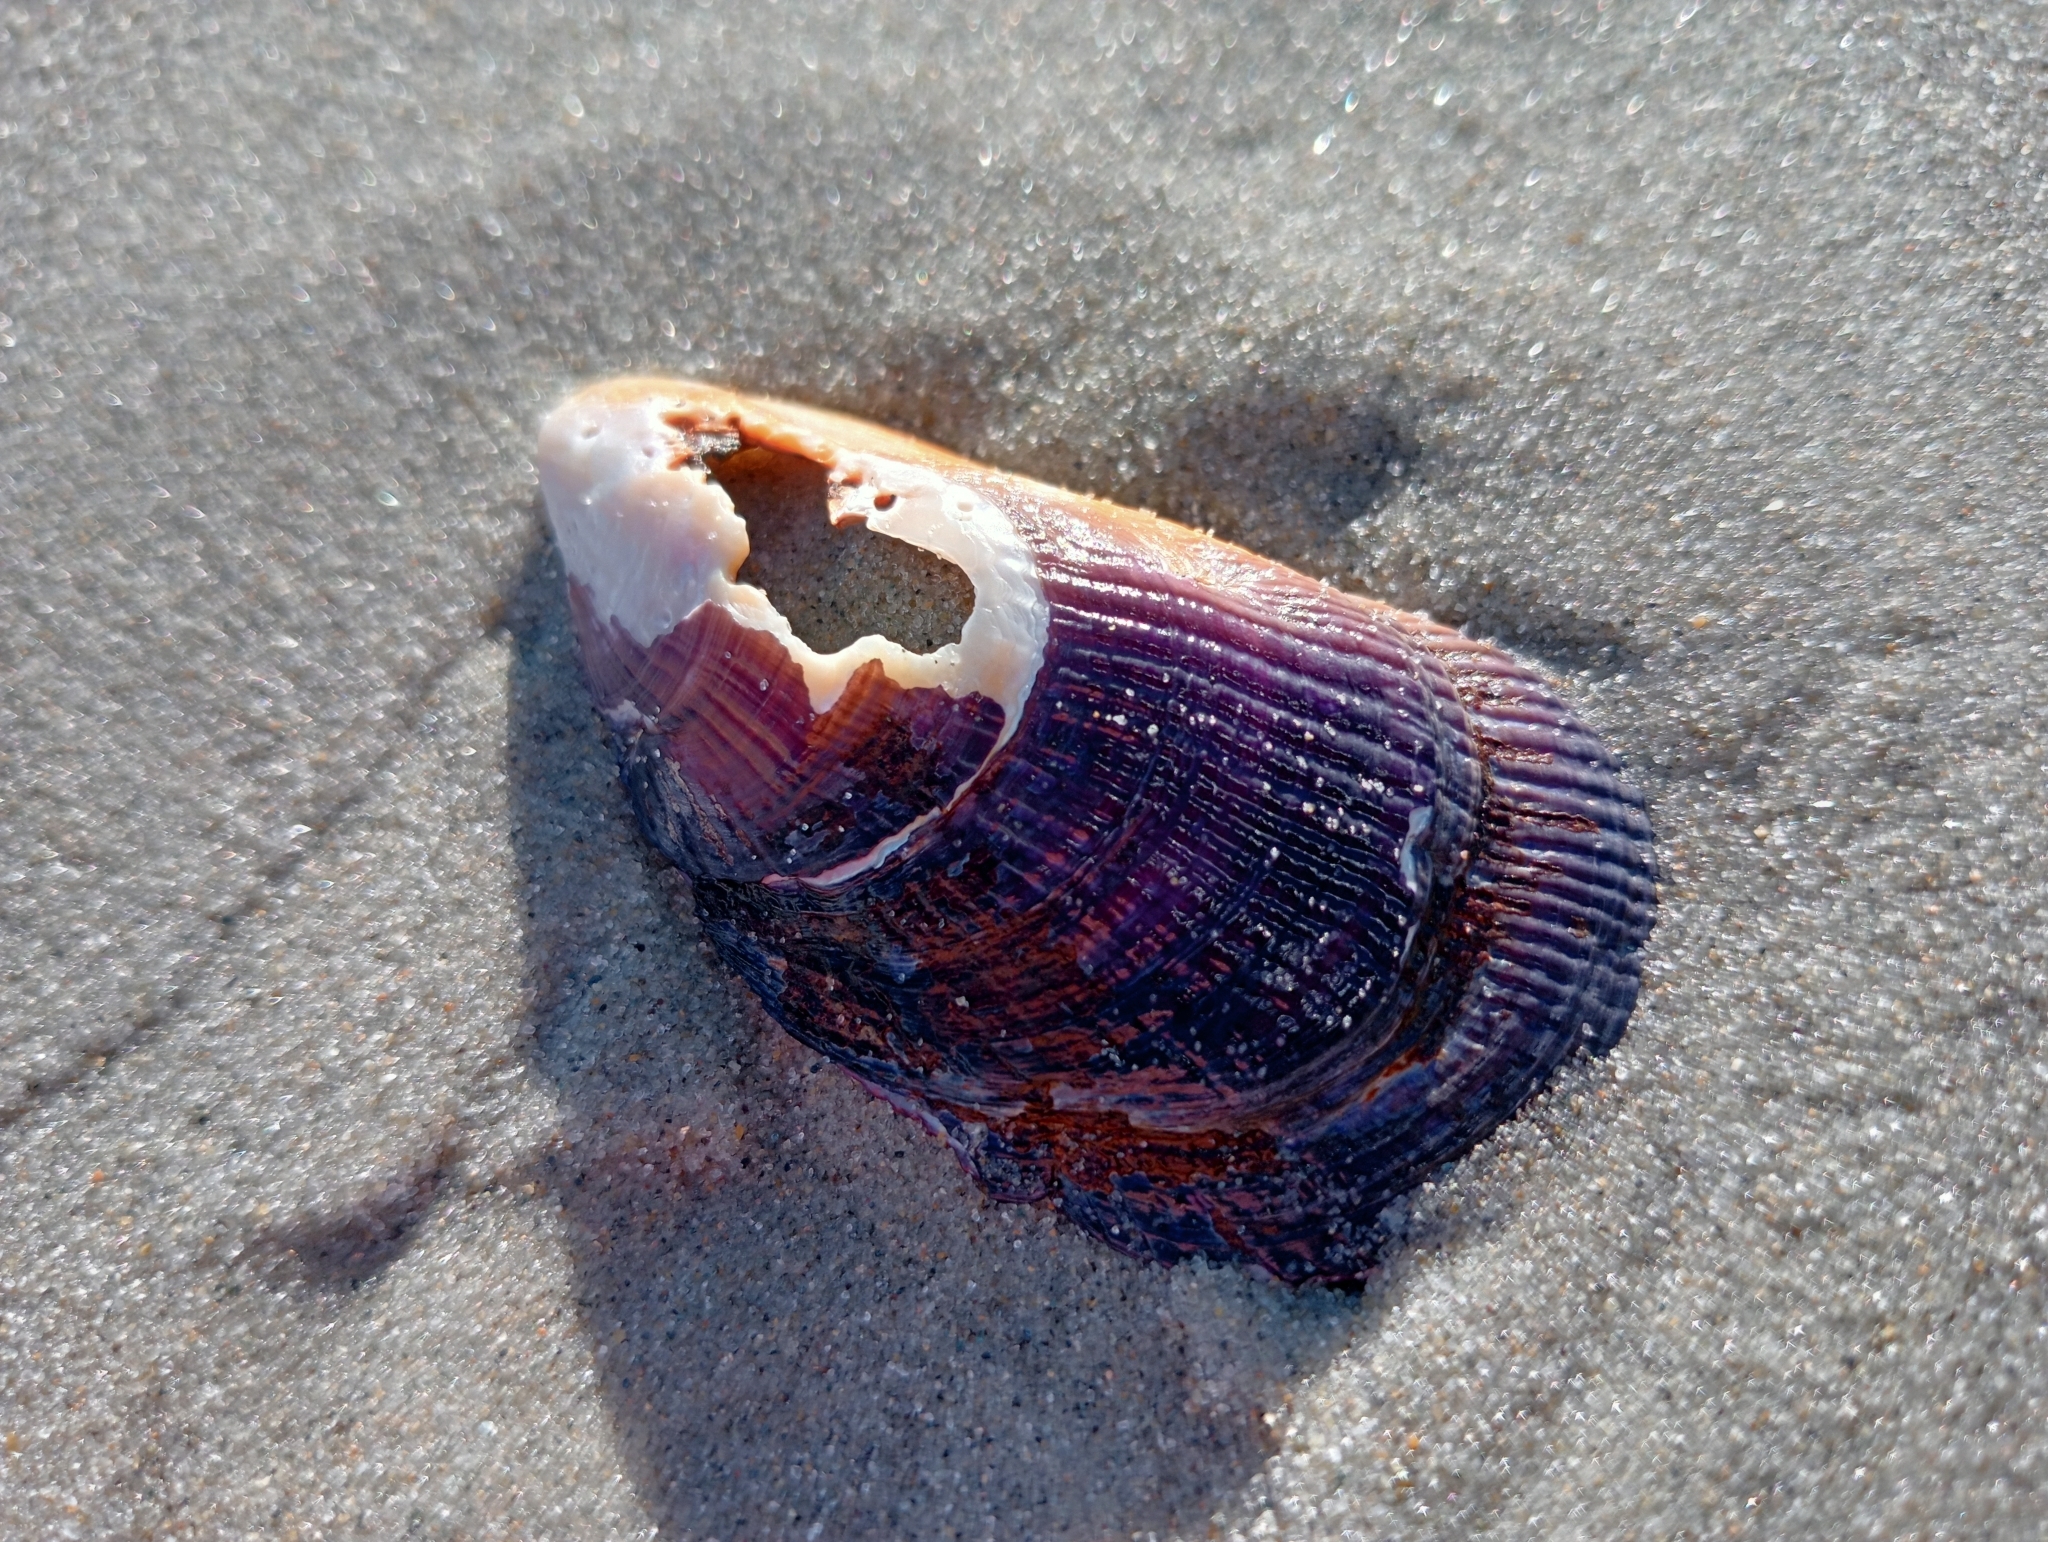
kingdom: Animalia
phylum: Mollusca
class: Bivalvia
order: Mytilida
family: Mytilidae
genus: Aulacomya
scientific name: Aulacomya maoriana
